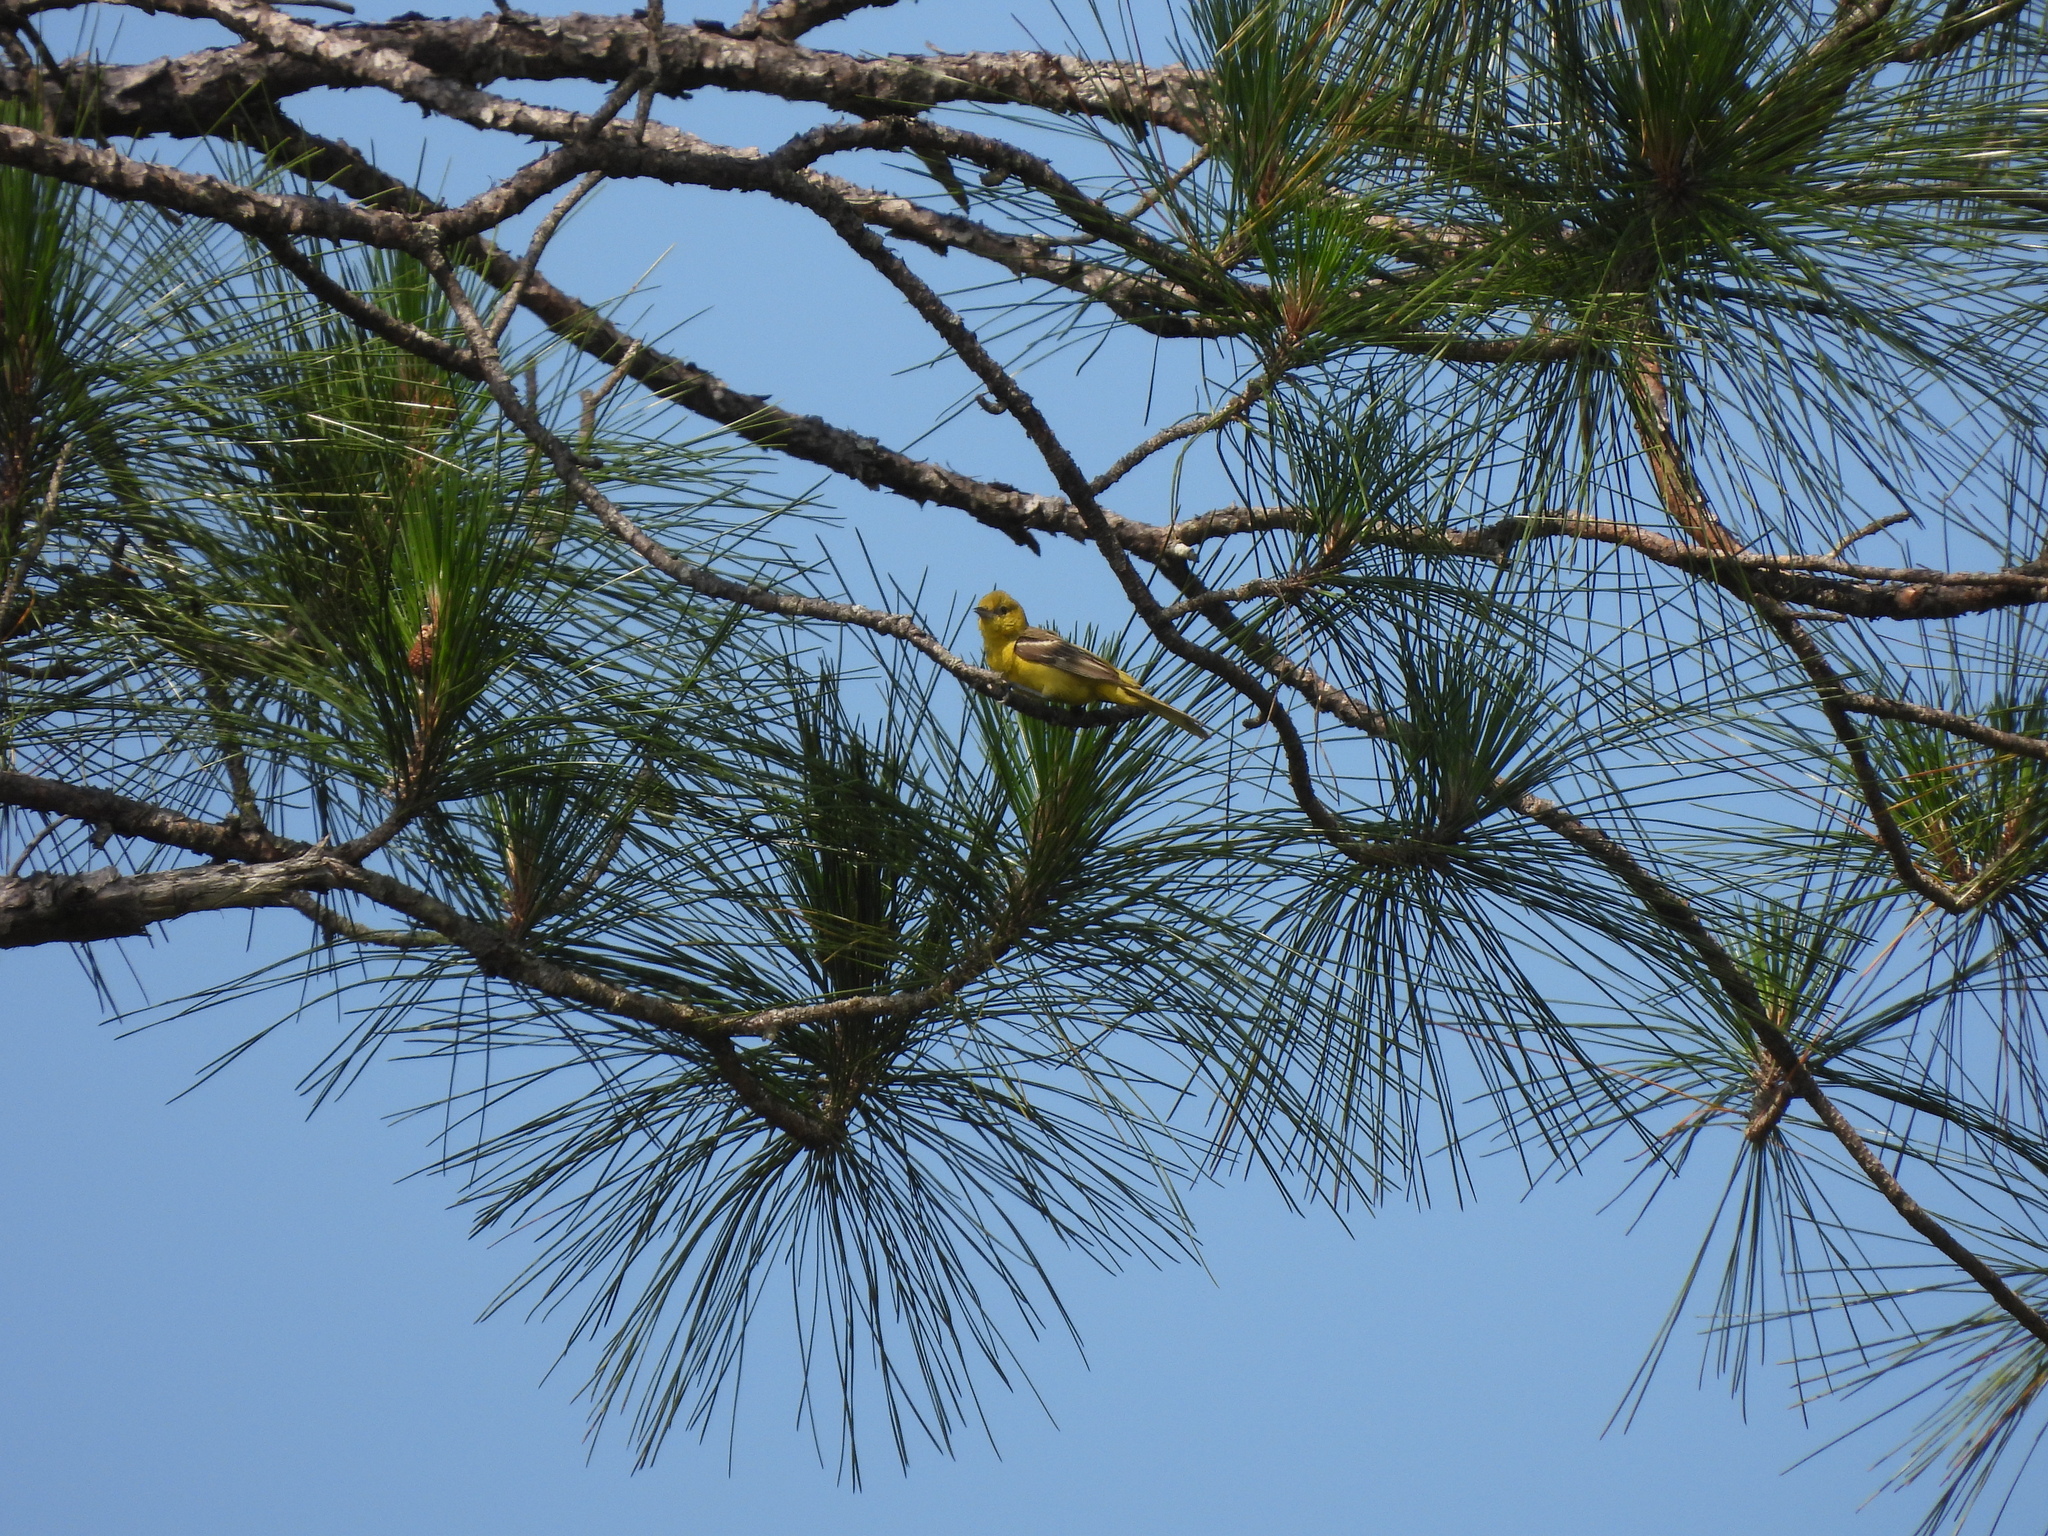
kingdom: Animalia
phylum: Chordata
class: Aves
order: Passeriformes
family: Icteridae
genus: Icterus
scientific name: Icterus spurius
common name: Orchard oriole
